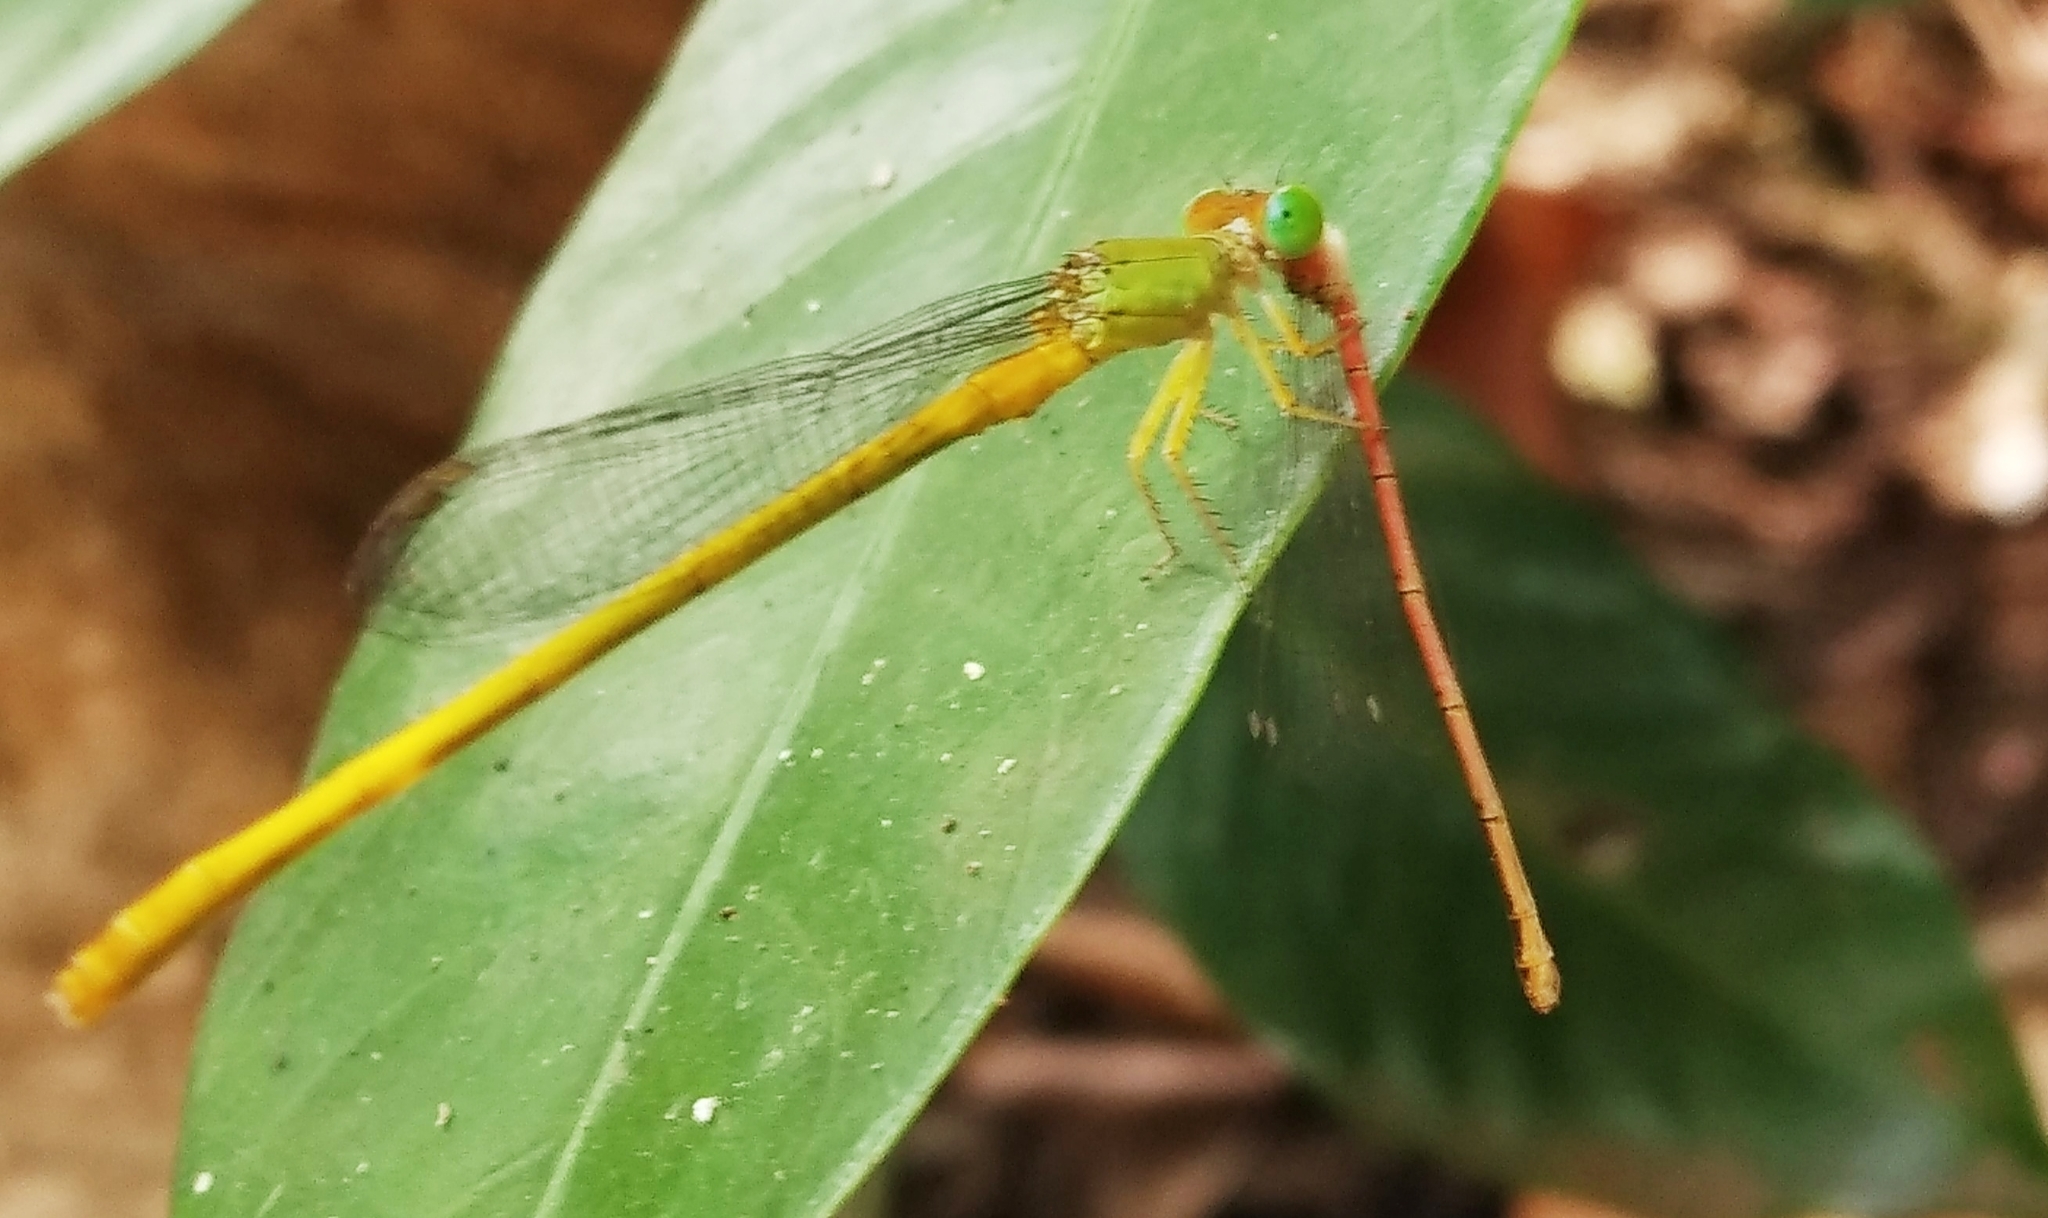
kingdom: Animalia
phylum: Arthropoda
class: Insecta
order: Odonata
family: Coenagrionidae
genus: Ceriagrion
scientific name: Ceriagrion coromandelianum
